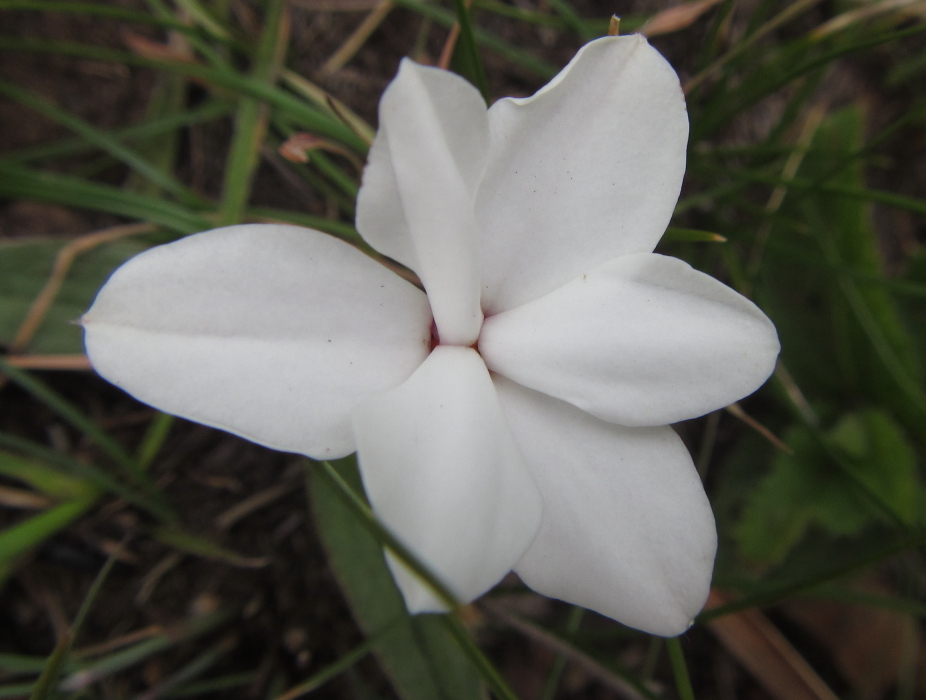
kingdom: Plantae
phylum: Tracheophyta
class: Liliopsida
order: Asparagales
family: Hypoxidaceae
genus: Hypoxis
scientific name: Hypoxis baurii
